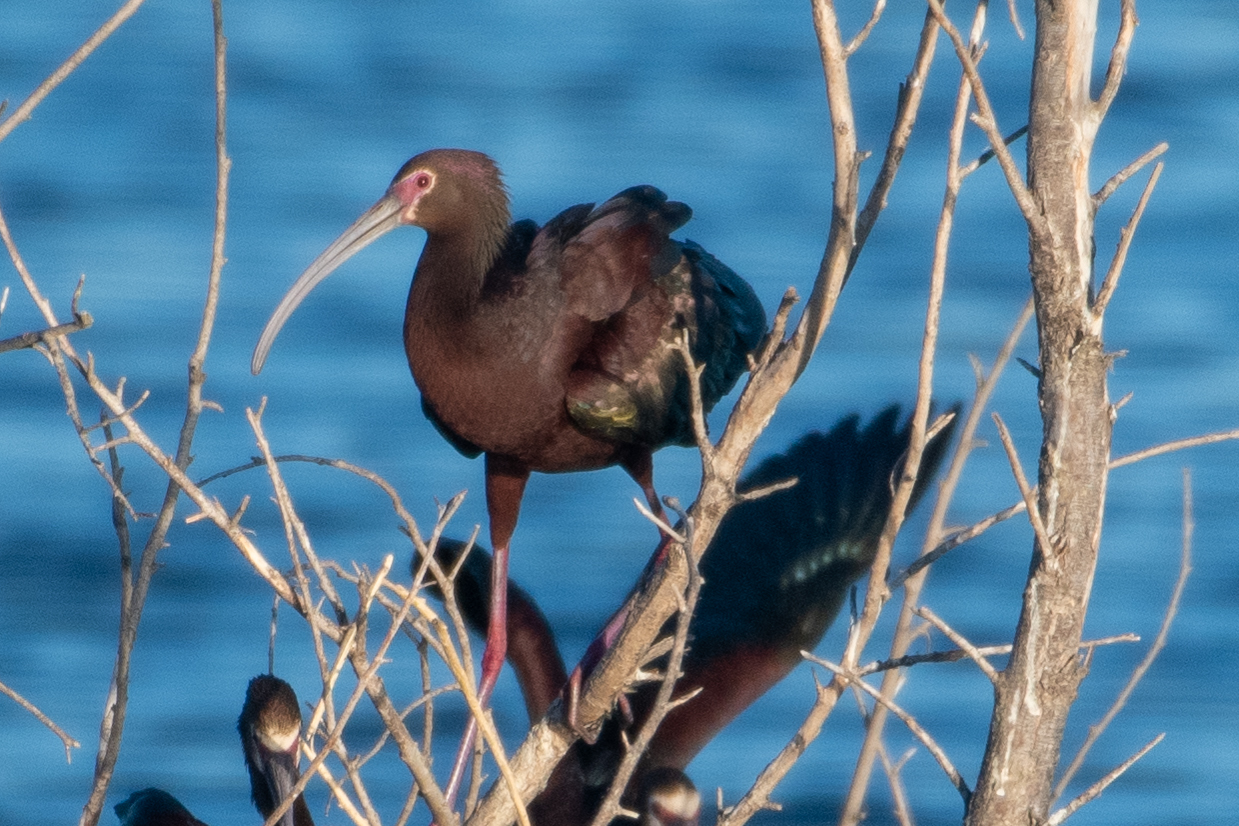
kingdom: Animalia
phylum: Chordata
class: Aves
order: Pelecaniformes
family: Threskiornithidae
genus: Plegadis
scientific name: Plegadis chihi
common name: White-faced ibis
